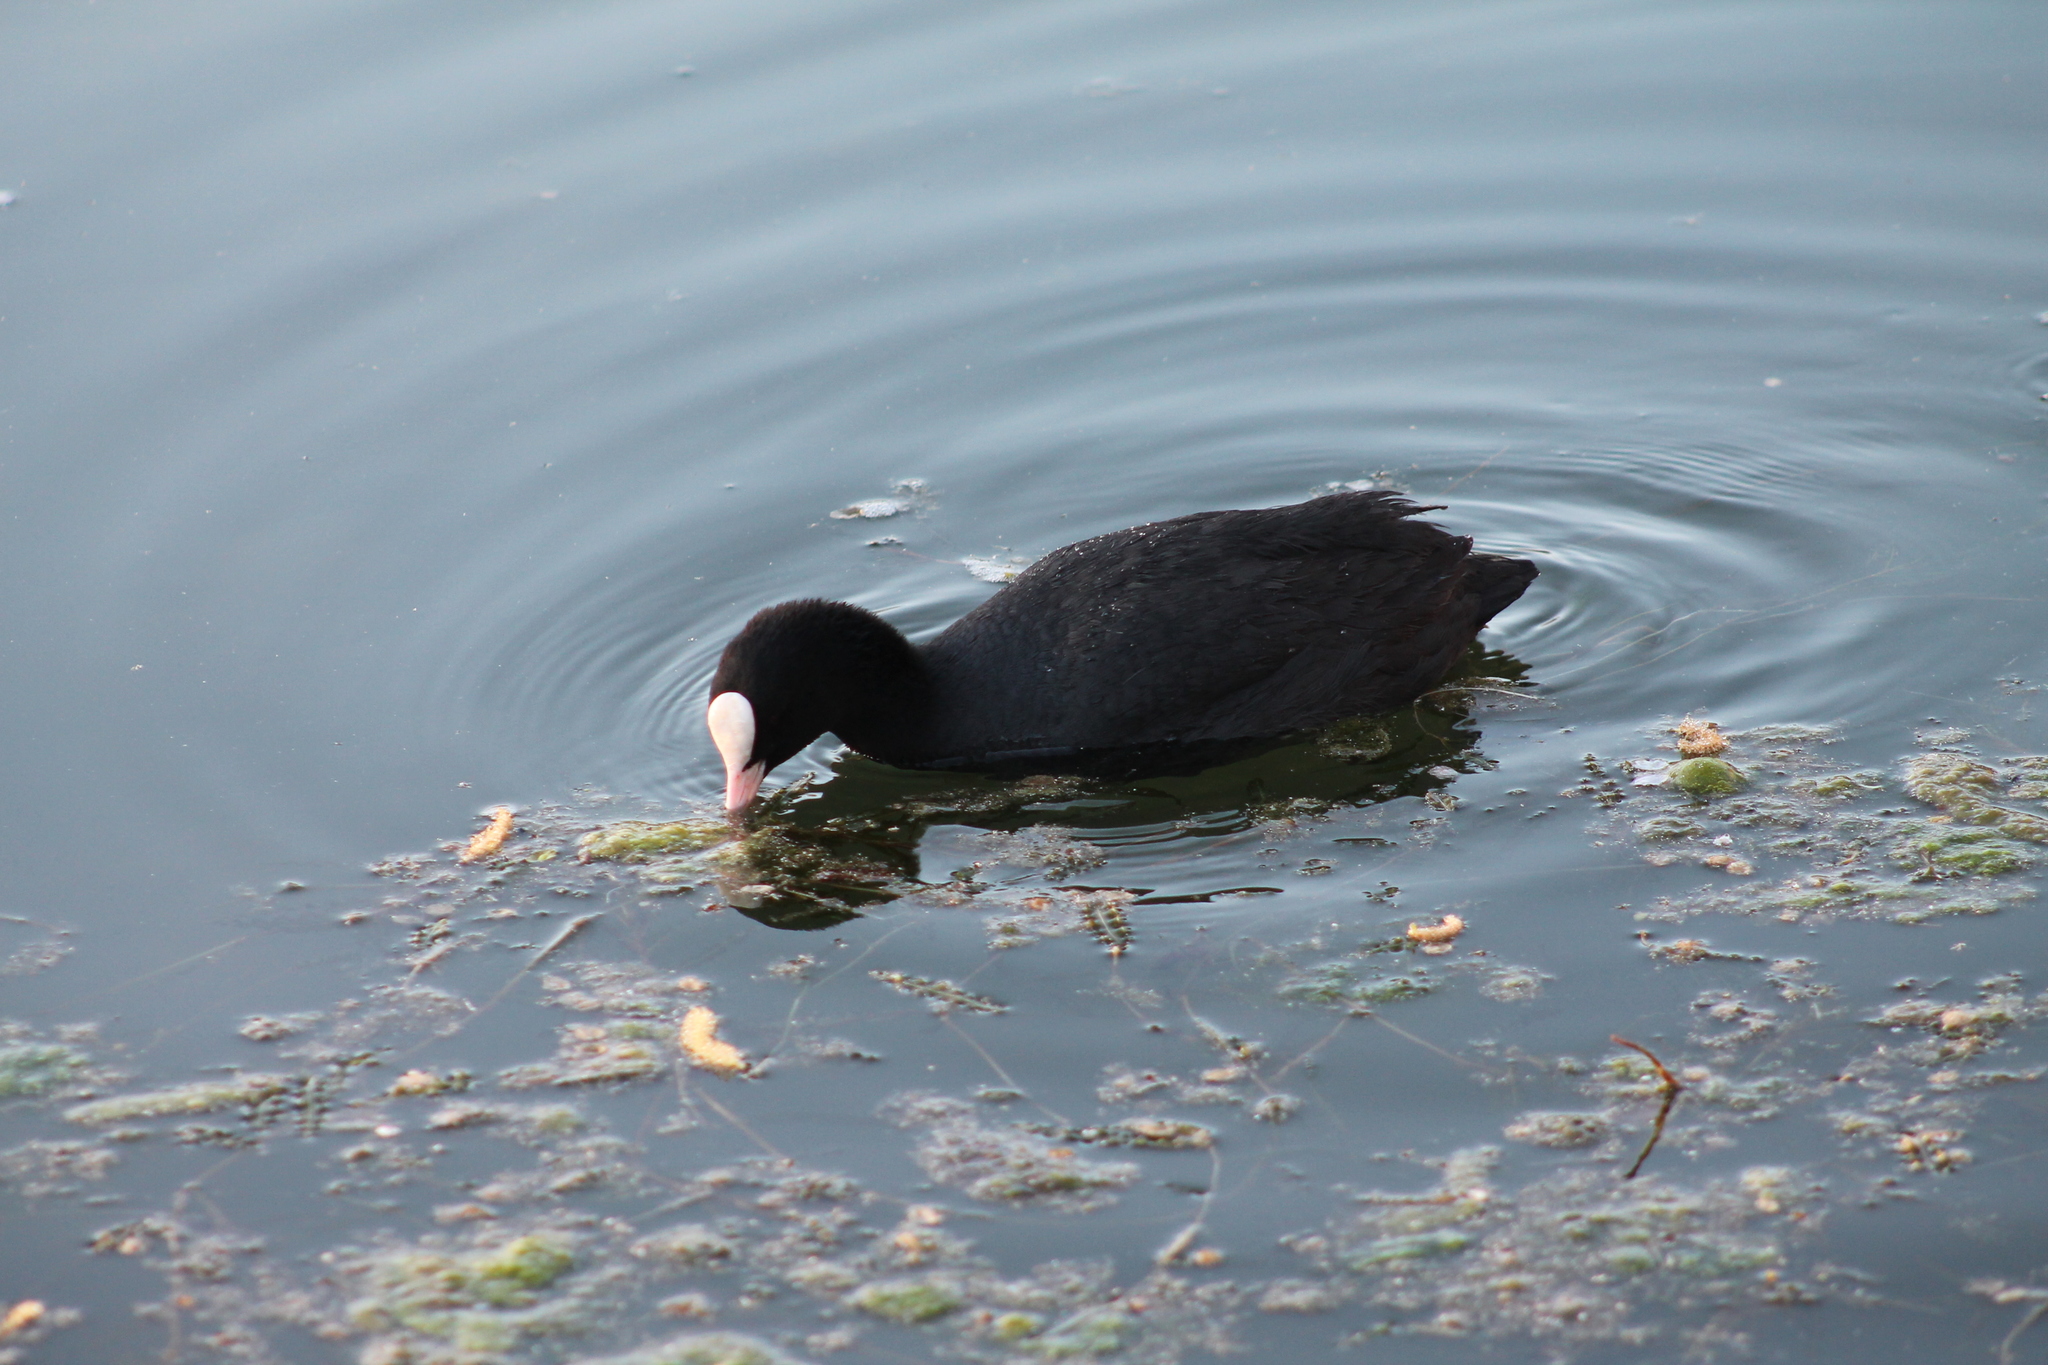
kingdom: Animalia
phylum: Chordata
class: Aves
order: Gruiformes
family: Rallidae
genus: Fulica
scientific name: Fulica atra
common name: Eurasian coot
